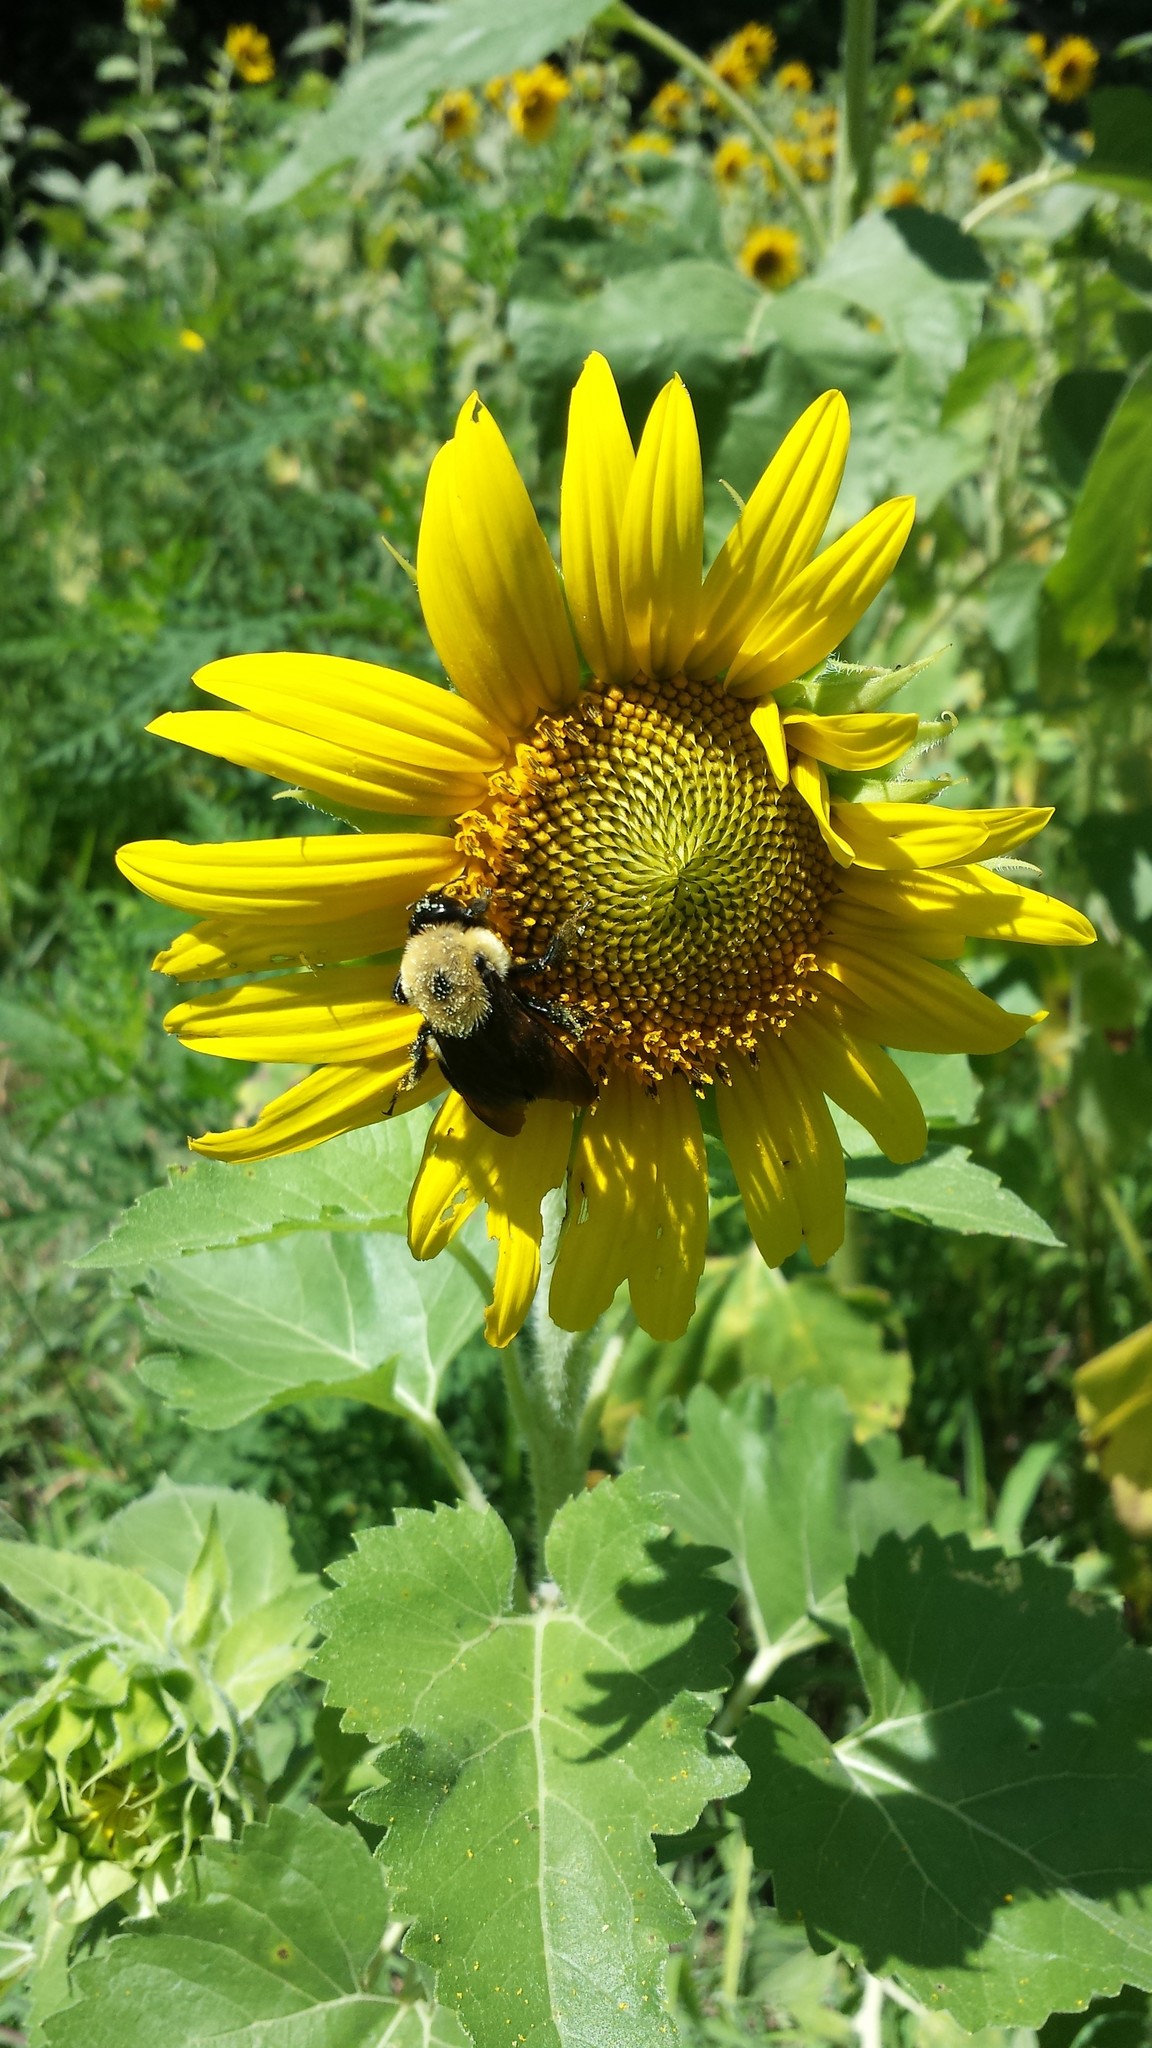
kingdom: Animalia
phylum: Arthropoda
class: Insecta
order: Hymenoptera
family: Apidae
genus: Bombus
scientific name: Bombus griseocollis
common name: Brown-belted bumble bee
